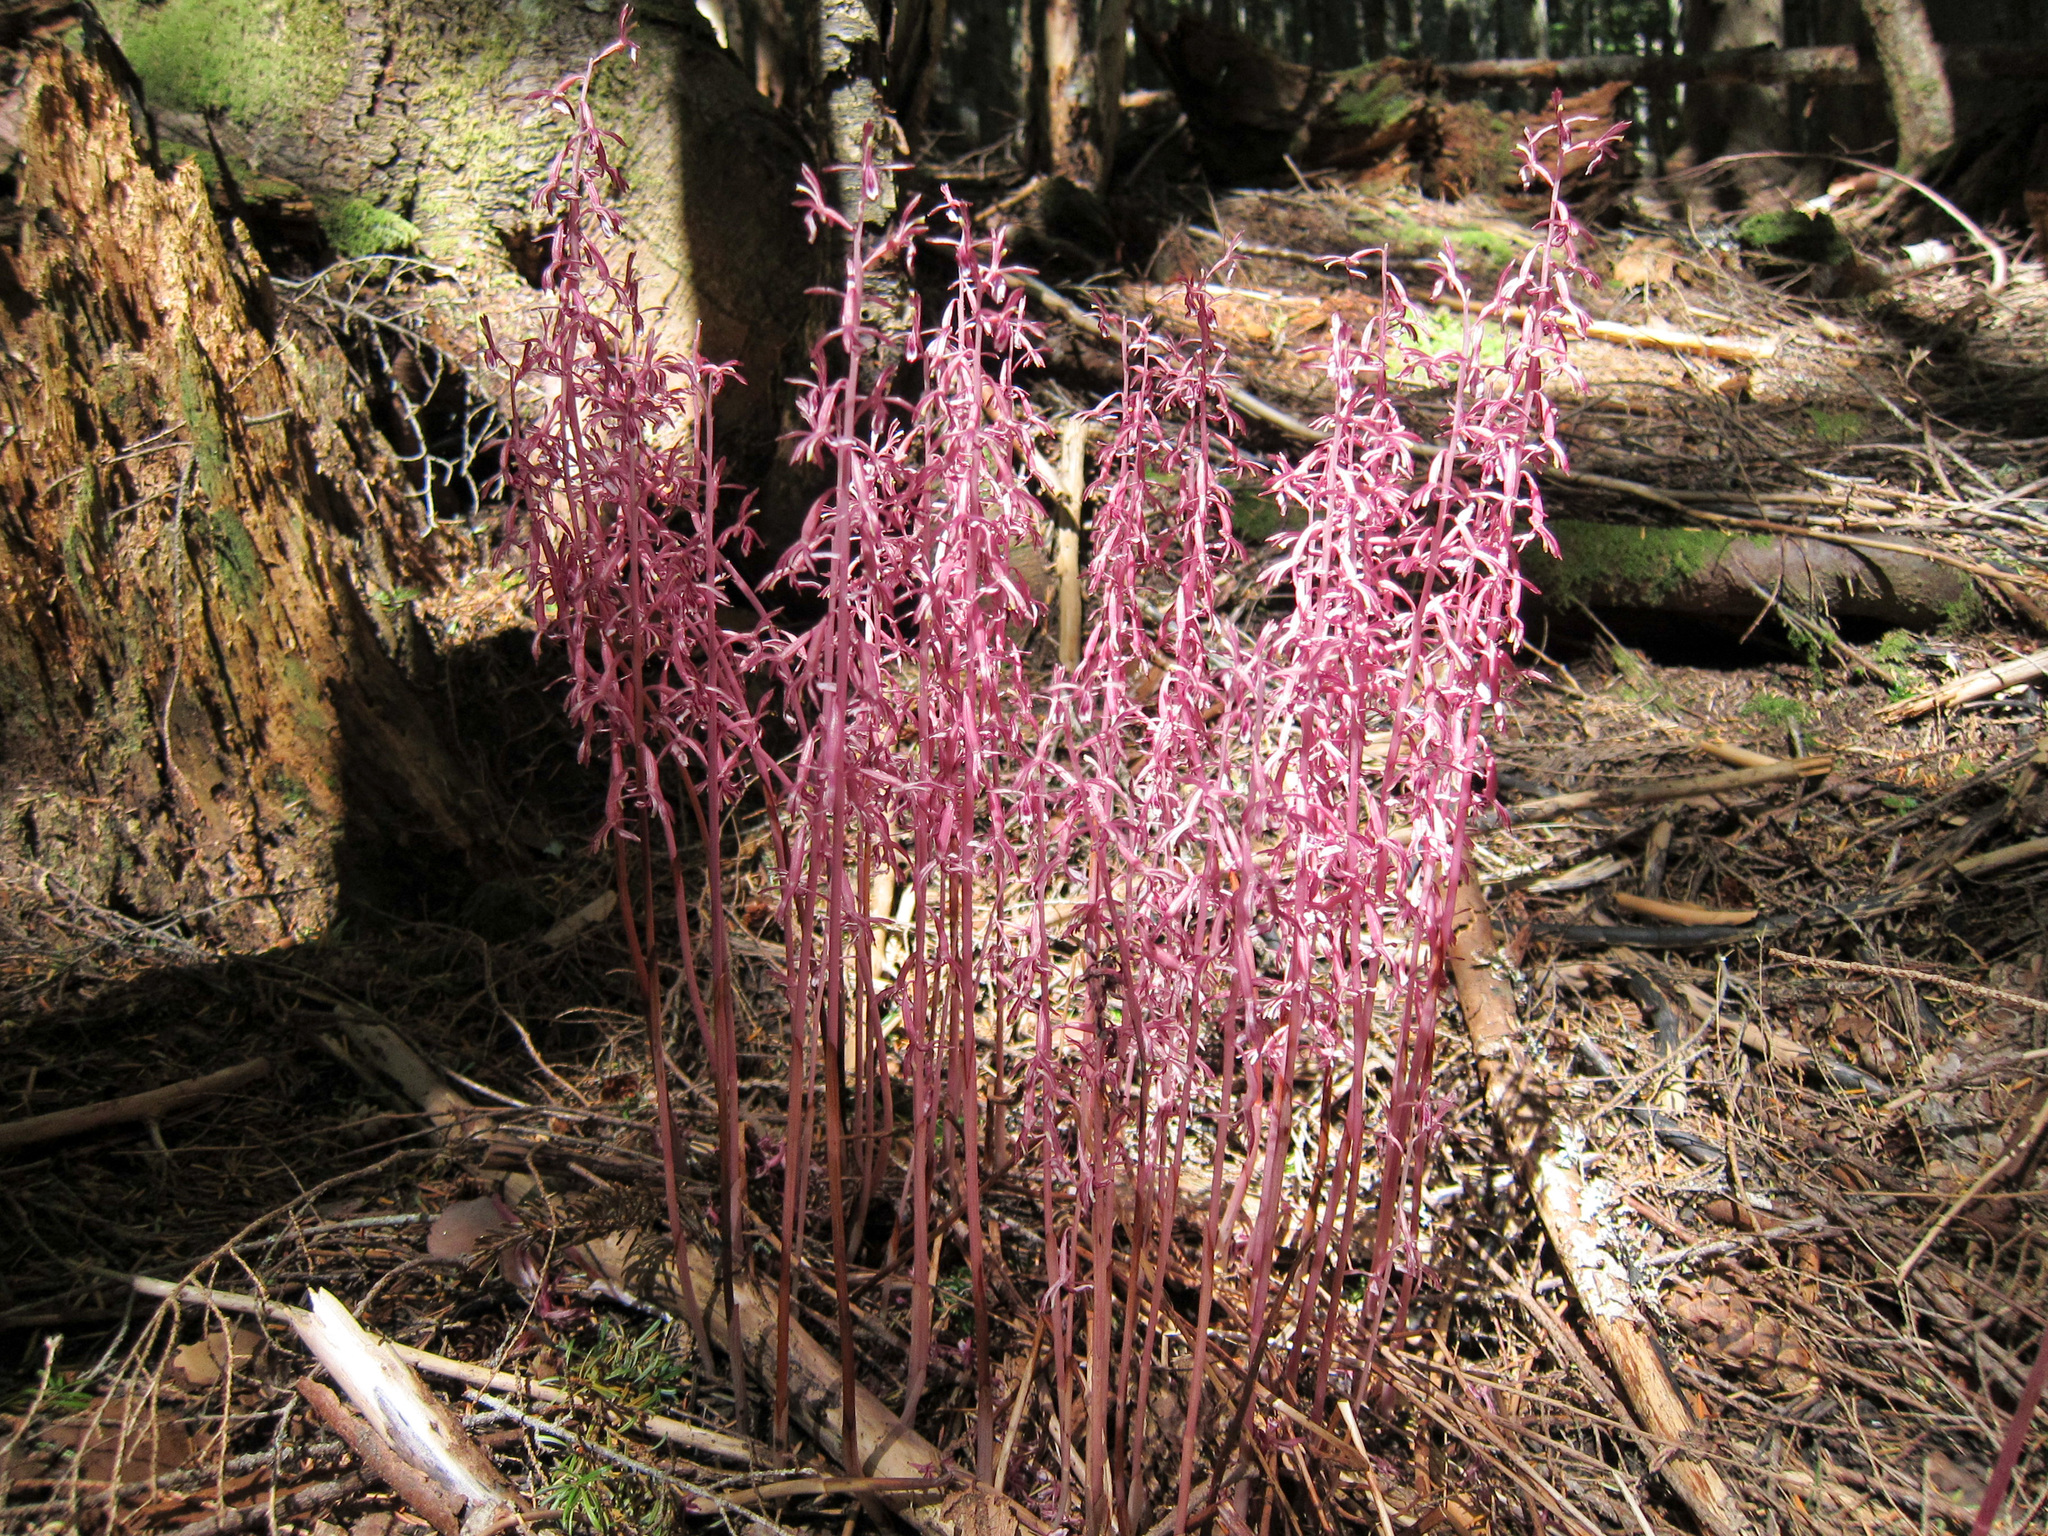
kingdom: Plantae
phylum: Tracheophyta
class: Liliopsida
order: Asparagales
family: Orchidaceae
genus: Corallorhiza
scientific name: Corallorhiza mertensiana
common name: Pacific coralroot
